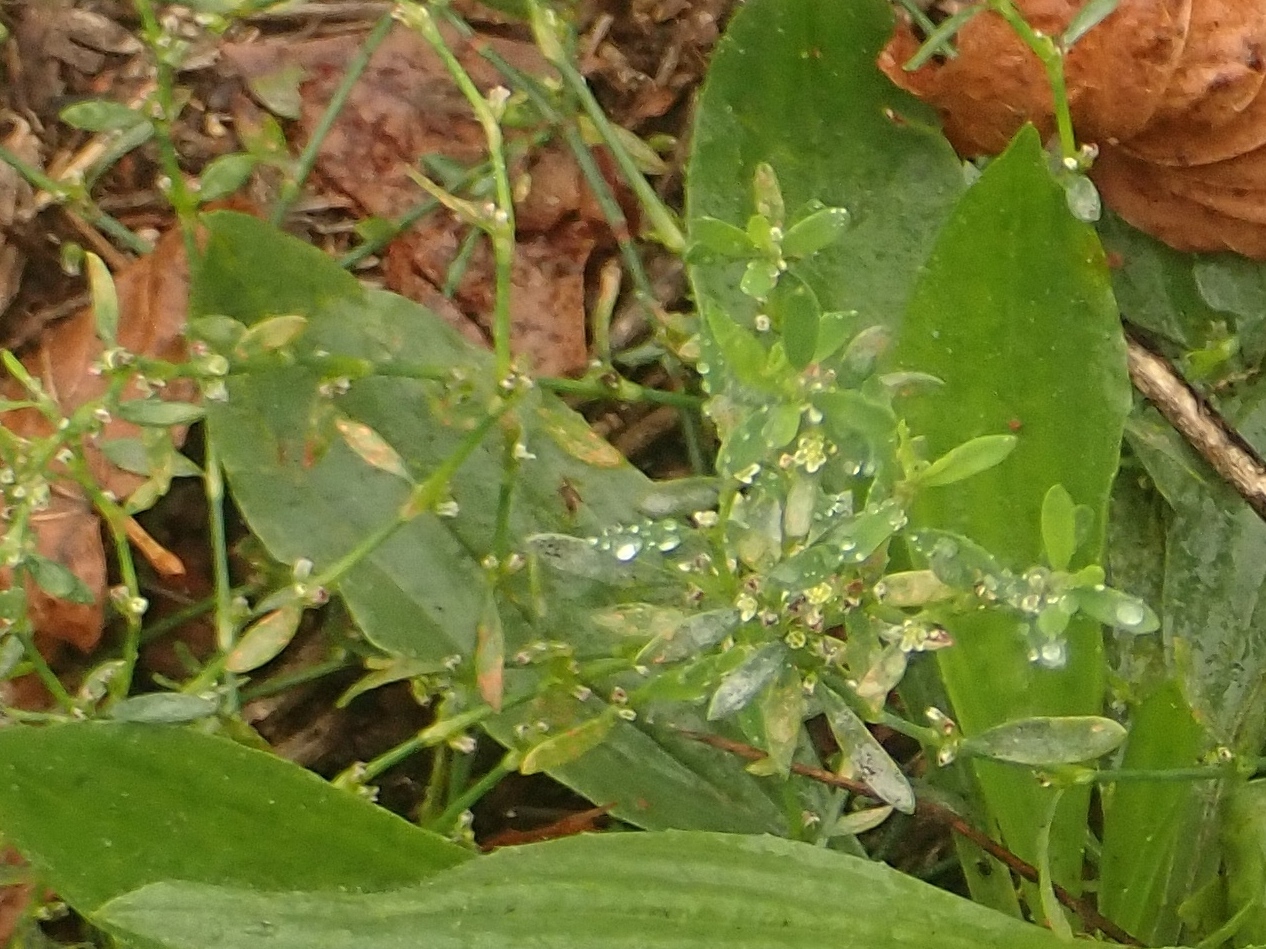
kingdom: Fungi
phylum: Ascomycota
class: Leotiomycetes
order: Helotiales
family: Erysiphaceae
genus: Erysiphe
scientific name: Erysiphe polygoni
